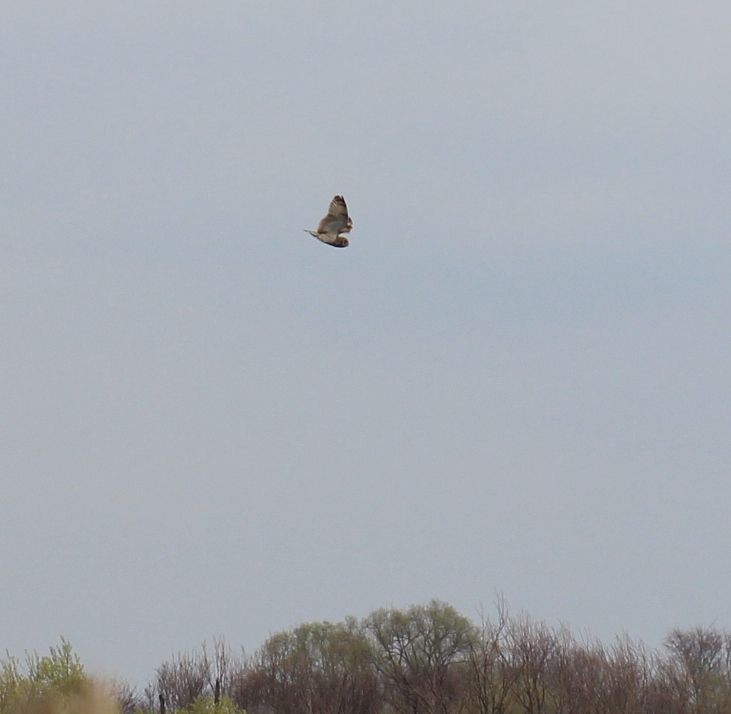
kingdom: Animalia
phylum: Chordata
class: Aves
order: Strigiformes
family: Strigidae
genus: Asio
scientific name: Asio flammeus
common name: Short-eared owl
